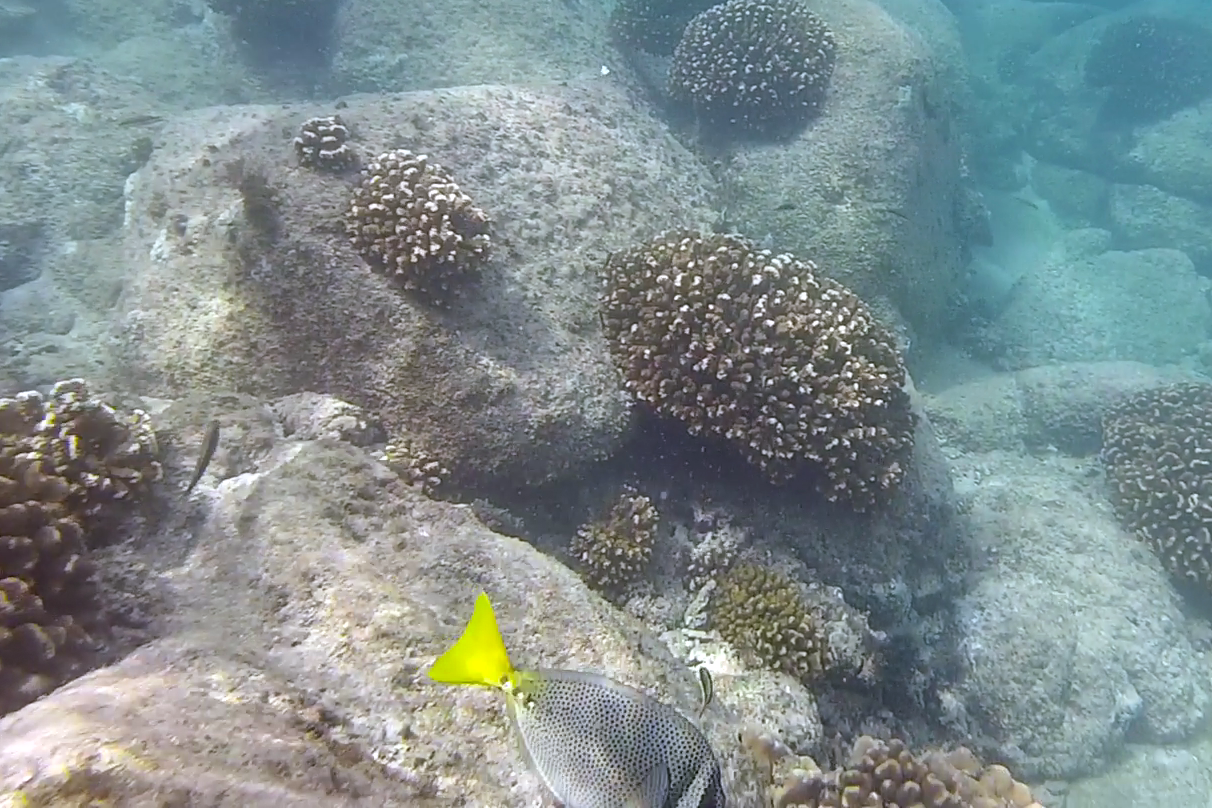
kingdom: Animalia
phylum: Chordata
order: Perciformes
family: Acanthuridae
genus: Prionurus
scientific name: Prionurus laticlavius
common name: Razor surgeonfish
